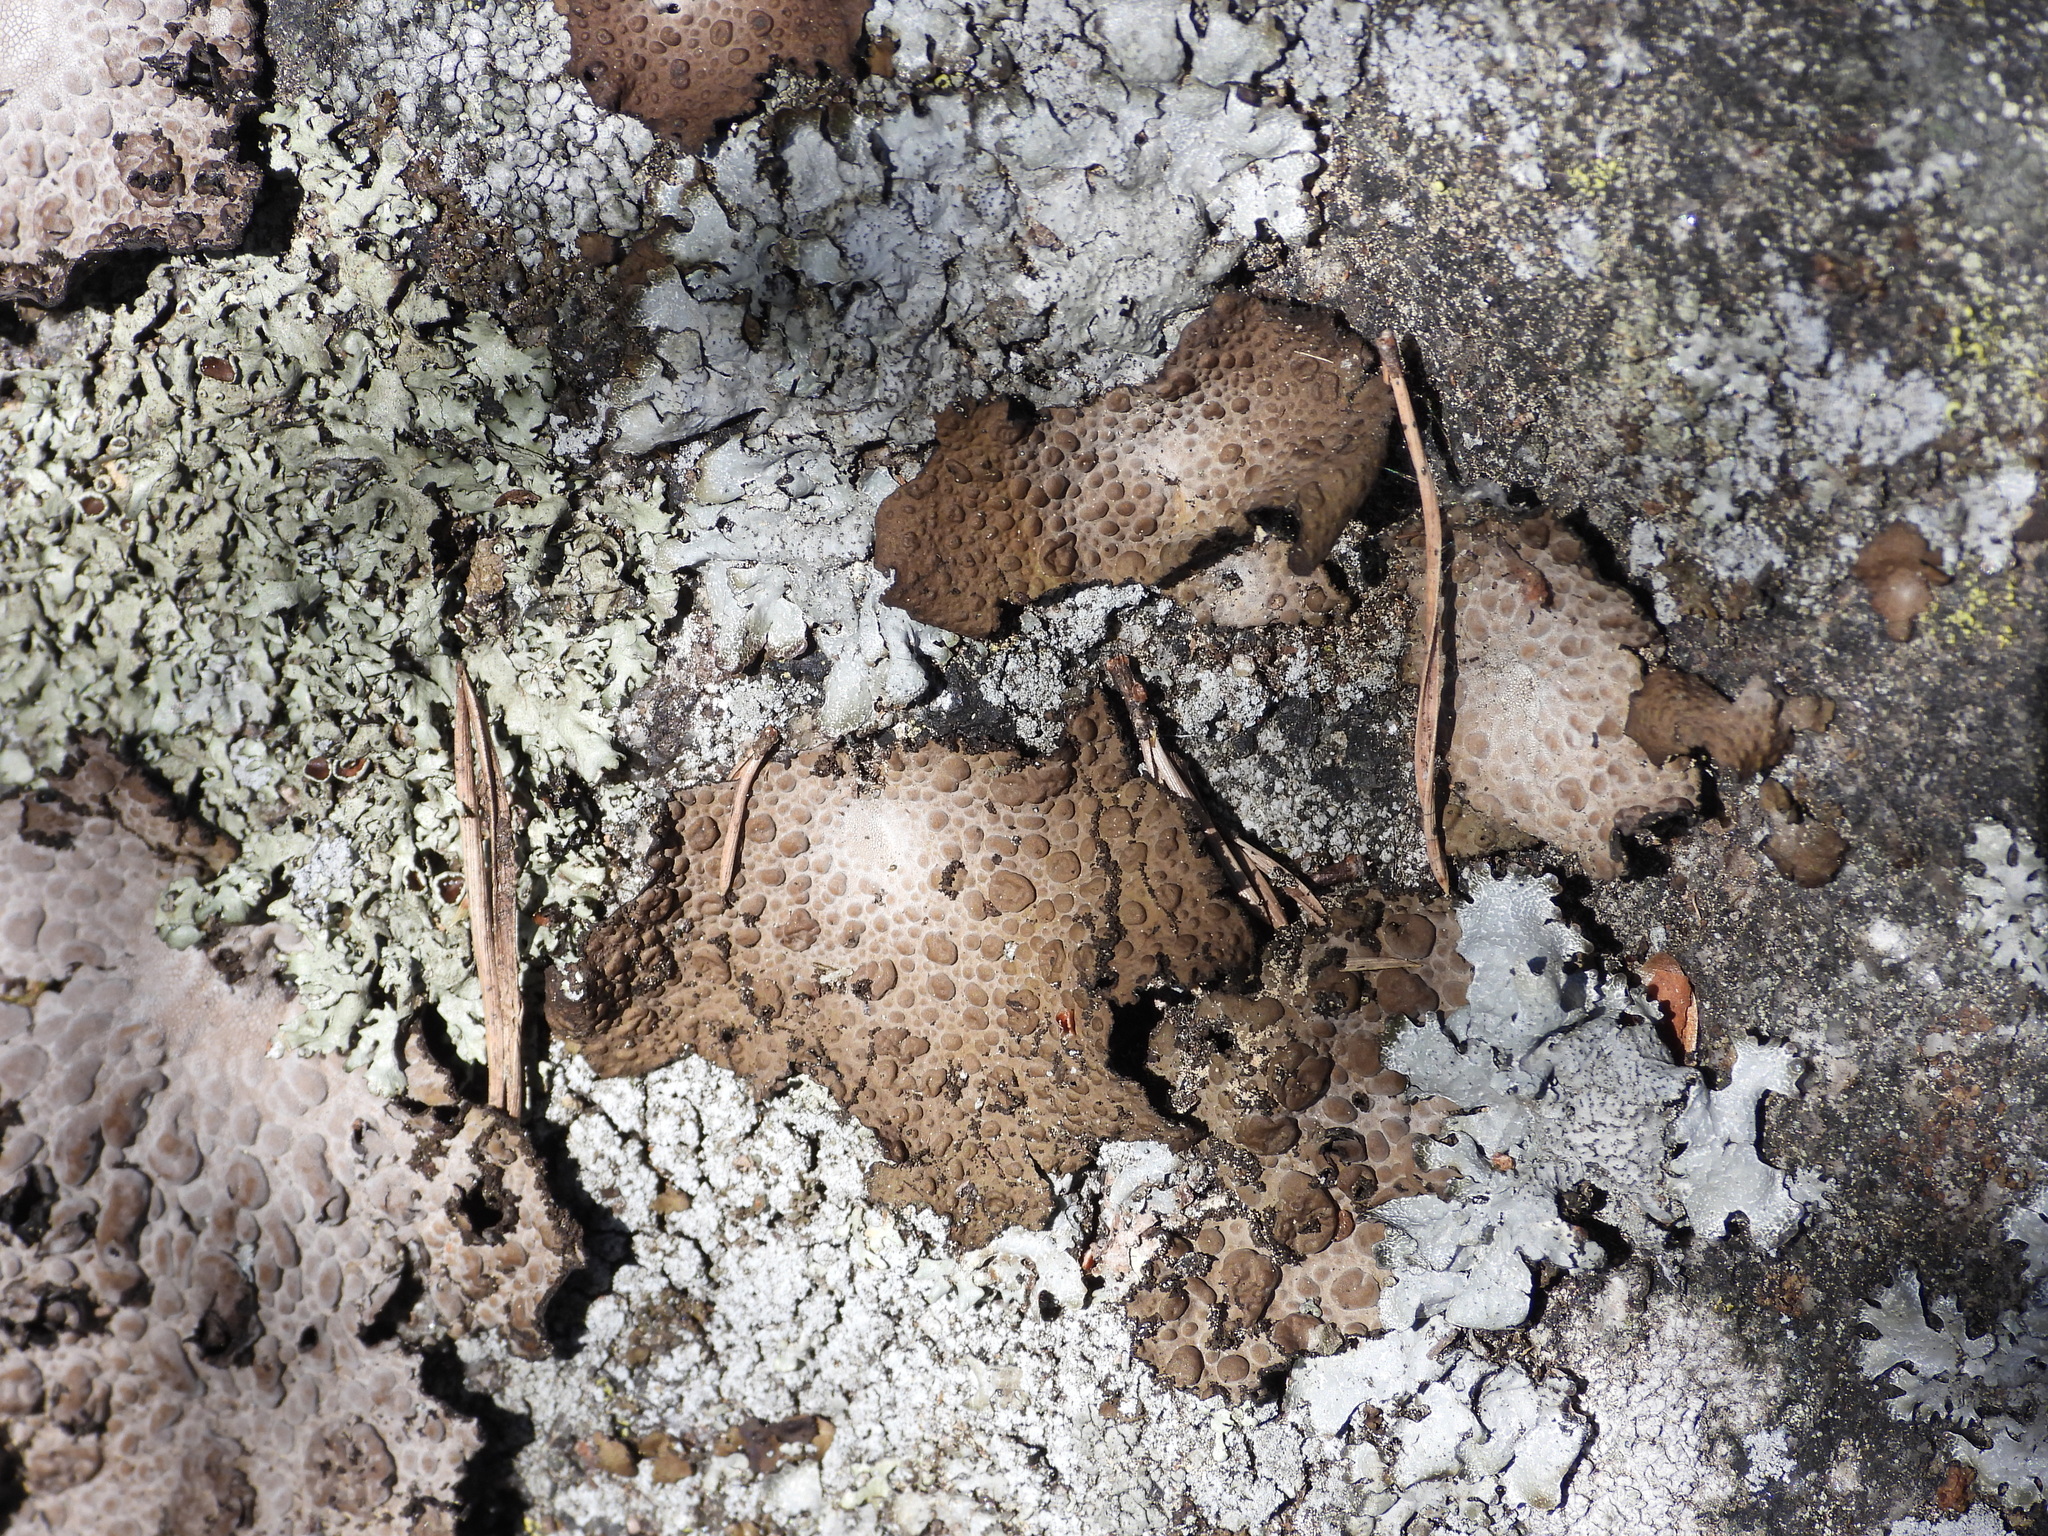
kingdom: Fungi
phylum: Ascomycota
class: Lecanoromycetes
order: Umbilicariales
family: Umbilicariaceae
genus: Lasallia
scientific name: Lasallia pustulata
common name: Blistered toadskin lichen
